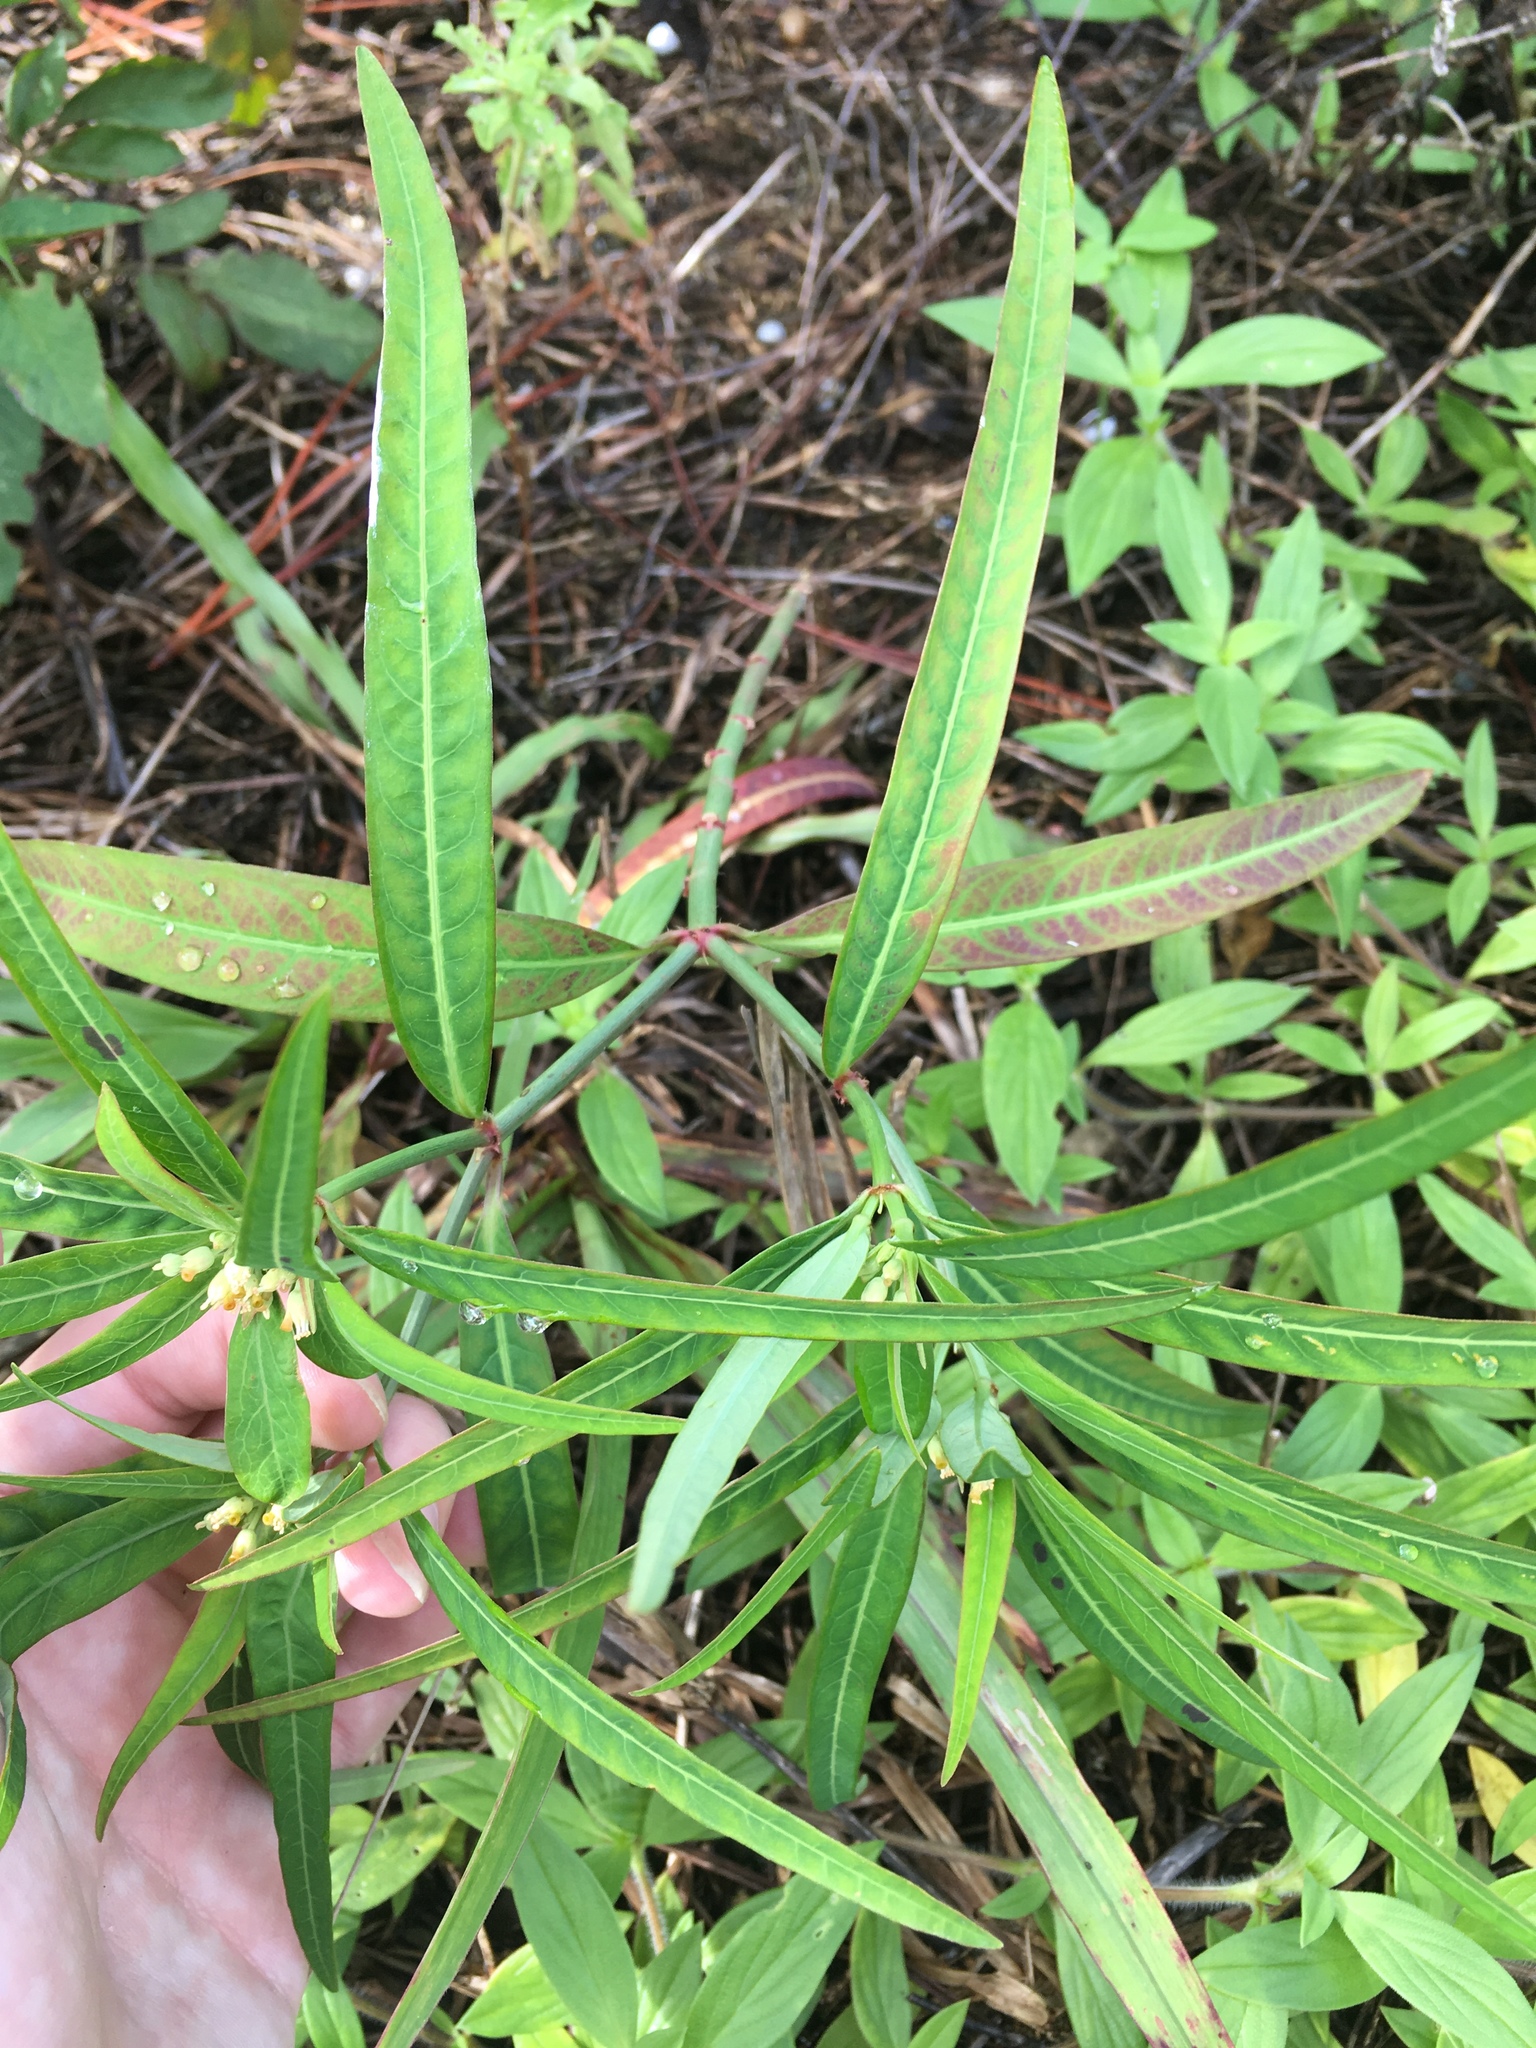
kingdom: Plantae
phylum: Tracheophyta
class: Magnoliopsida
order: Malpighiales
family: Euphorbiaceae
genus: Euphorbia
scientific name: Euphorbia heterophylla
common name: Mexican fireplant
